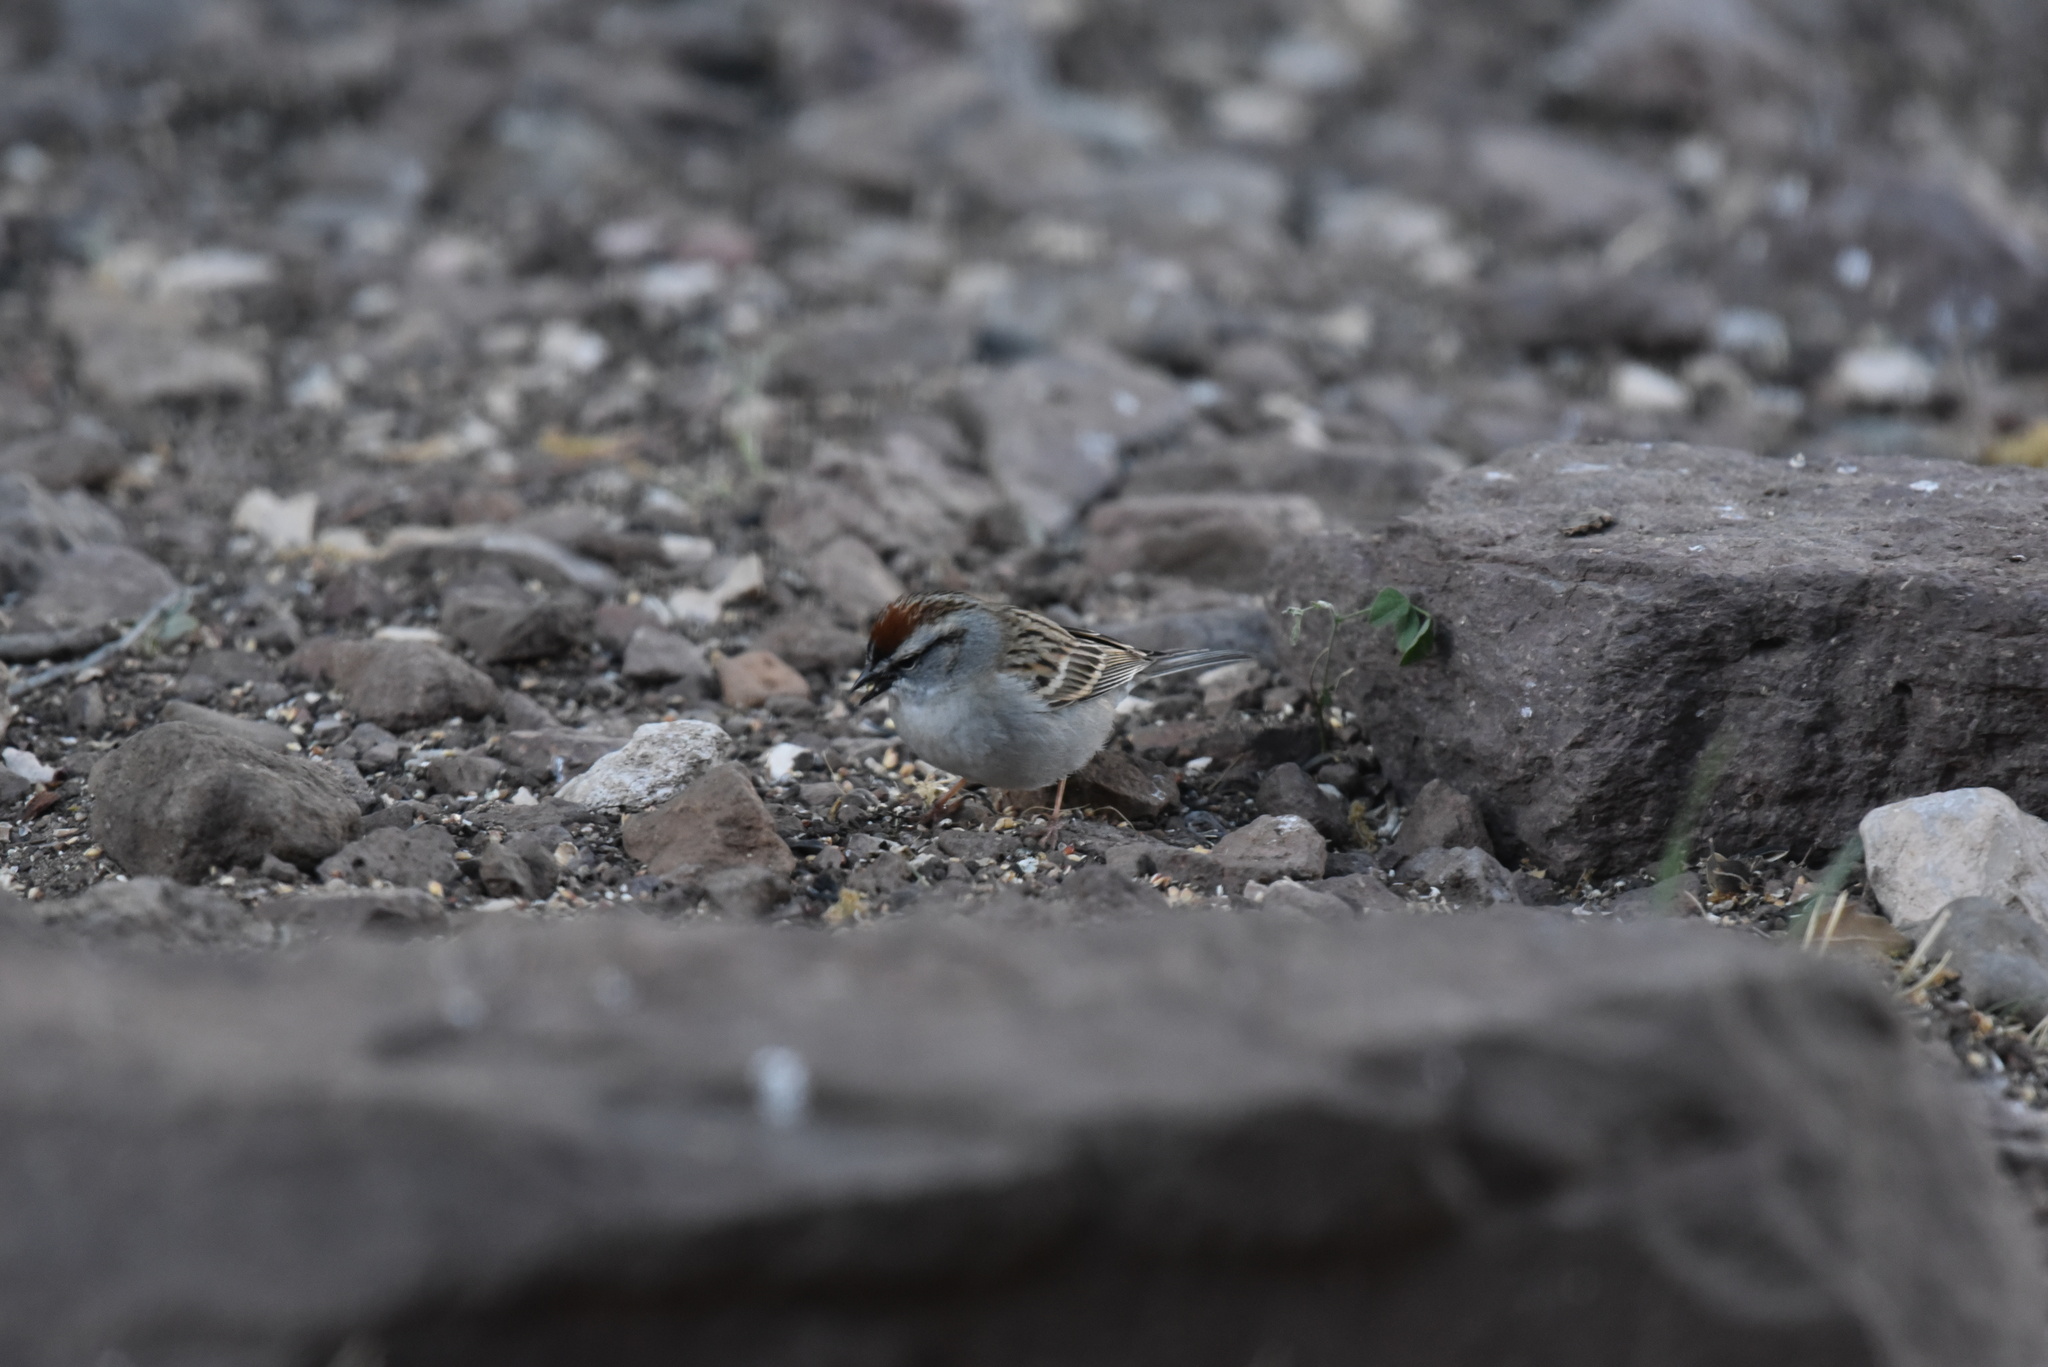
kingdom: Animalia
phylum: Chordata
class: Aves
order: Passeriformes
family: Passerellidae
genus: Spizella
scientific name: Spizella passerina
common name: Chipping sparrow
